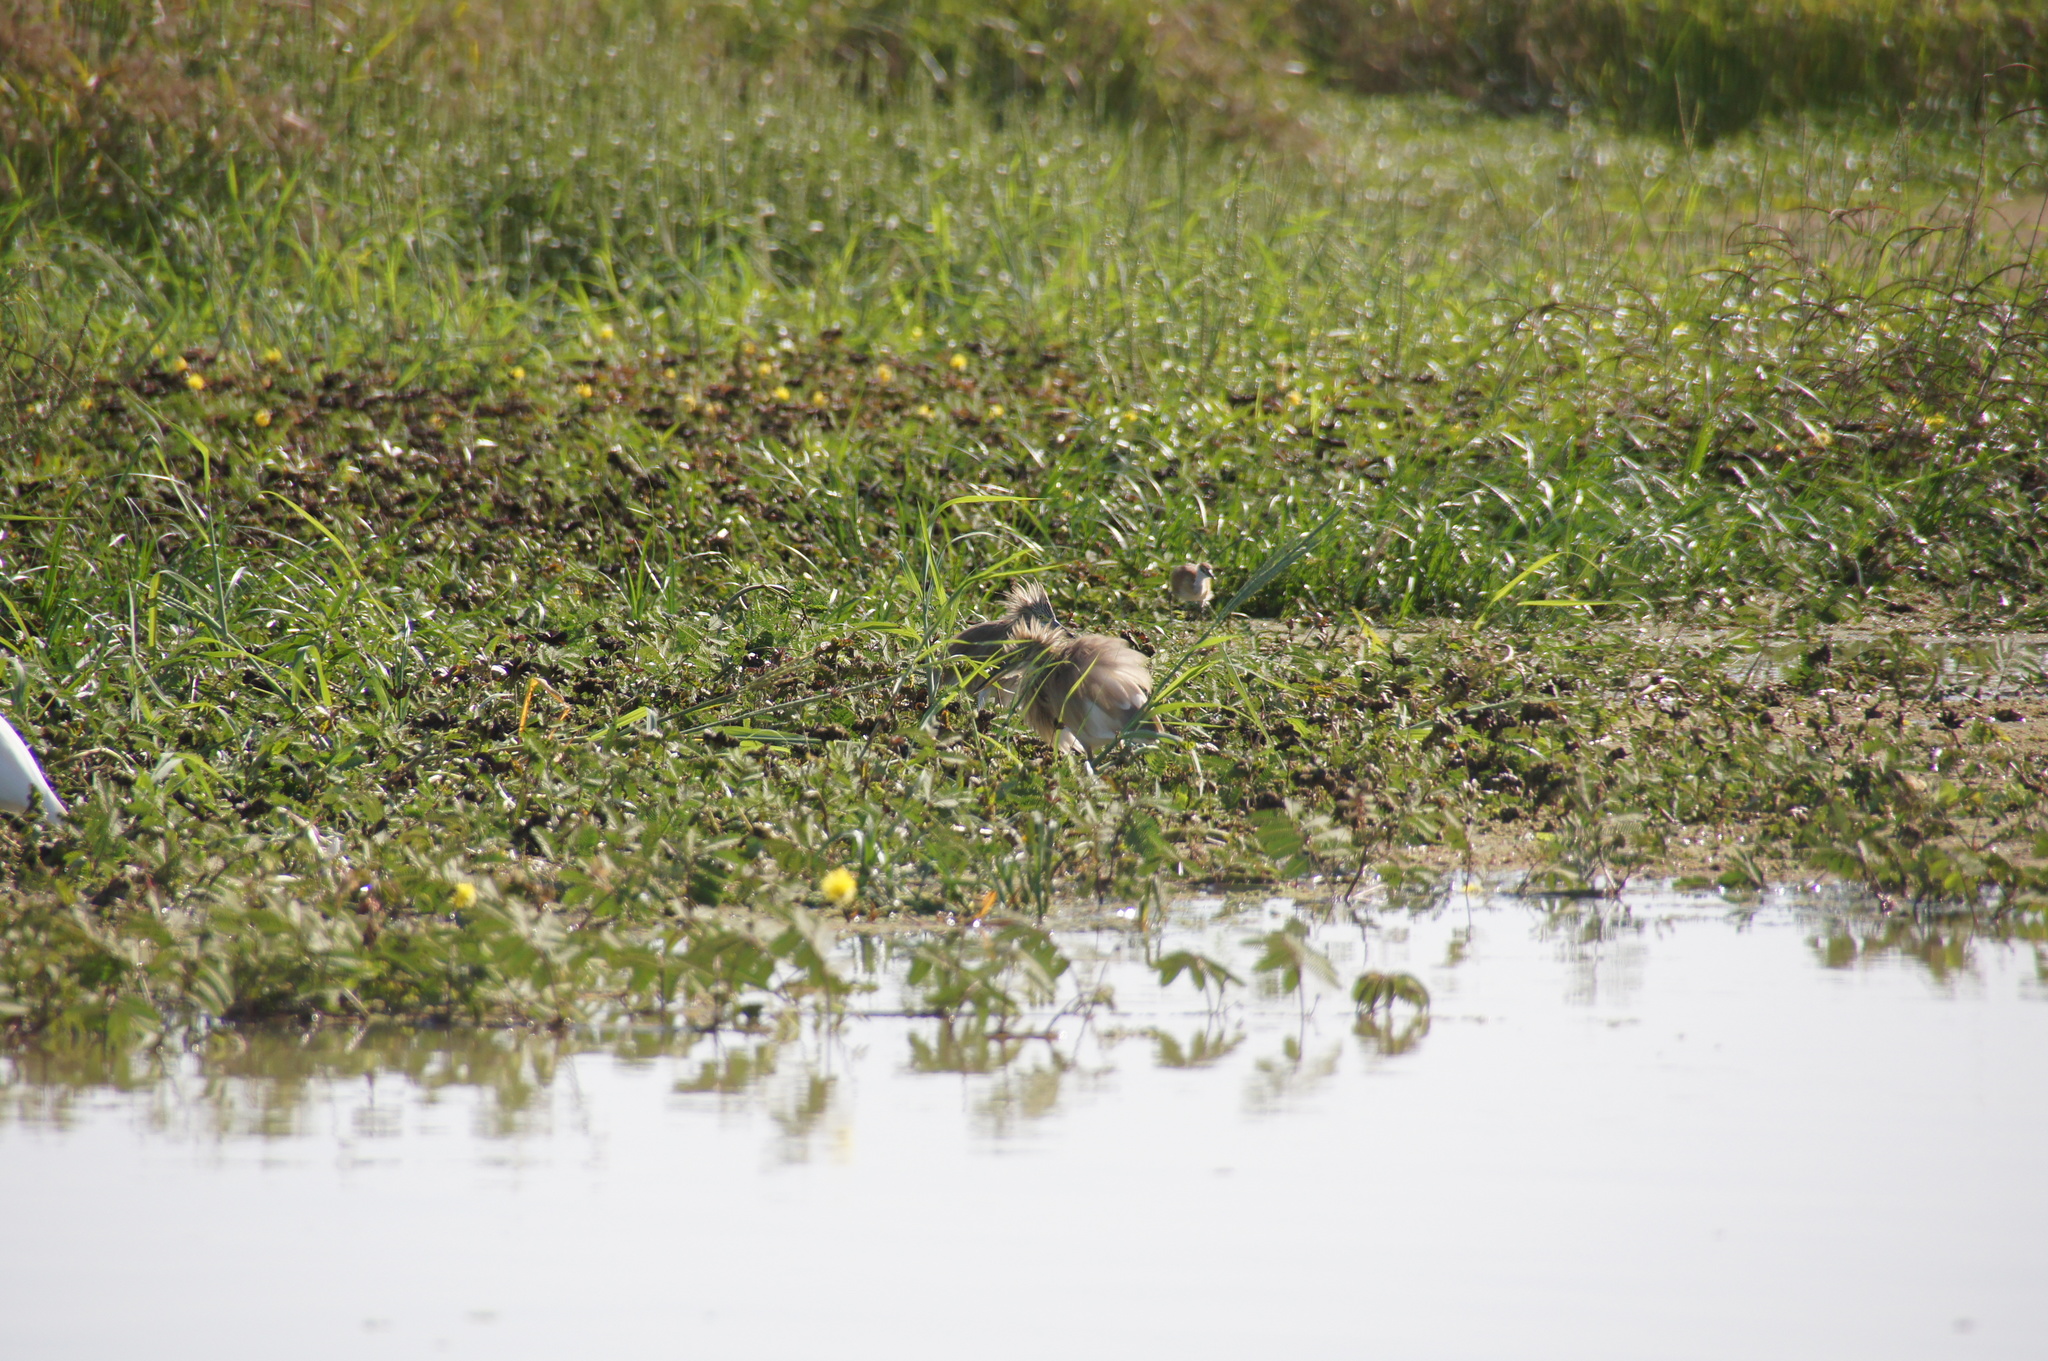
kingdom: Animalia
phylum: Chordata
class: Aves
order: Pelecaniformes
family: Ardeidae
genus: Ardeola
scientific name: Ardeola ralloides
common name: Squacco heron
